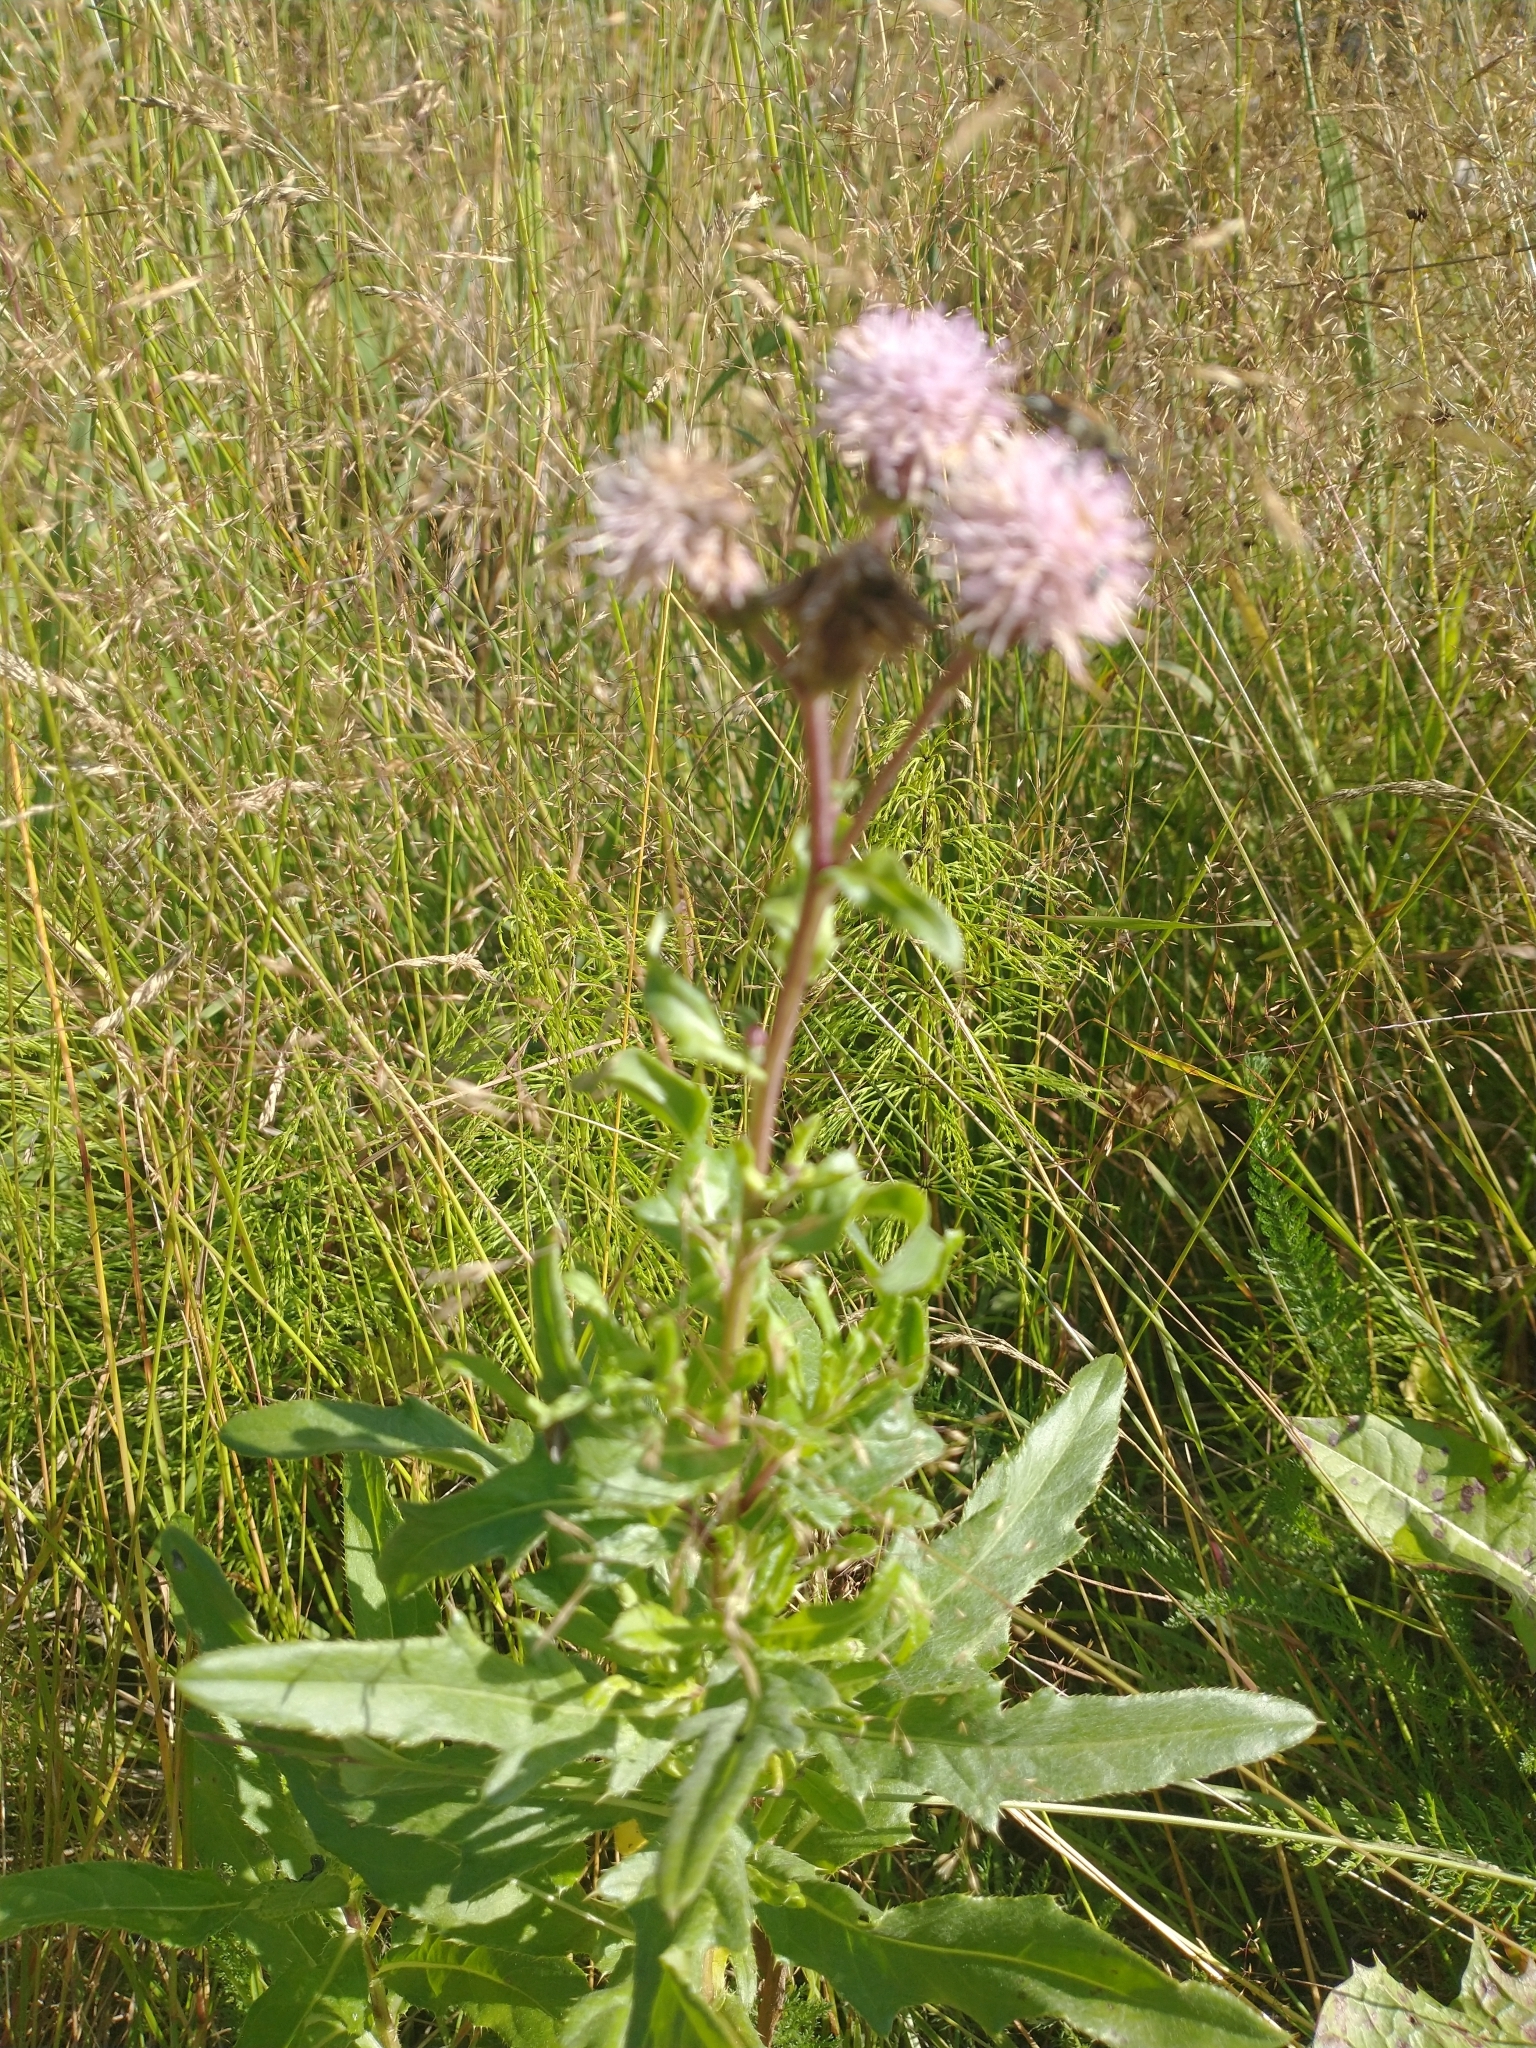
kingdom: Plantae
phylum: Tracheophyta
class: Magnoliopsida
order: Asterales
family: Asteraceae
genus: Cirsium
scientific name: Cirsium arvense
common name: Creeping thistle
